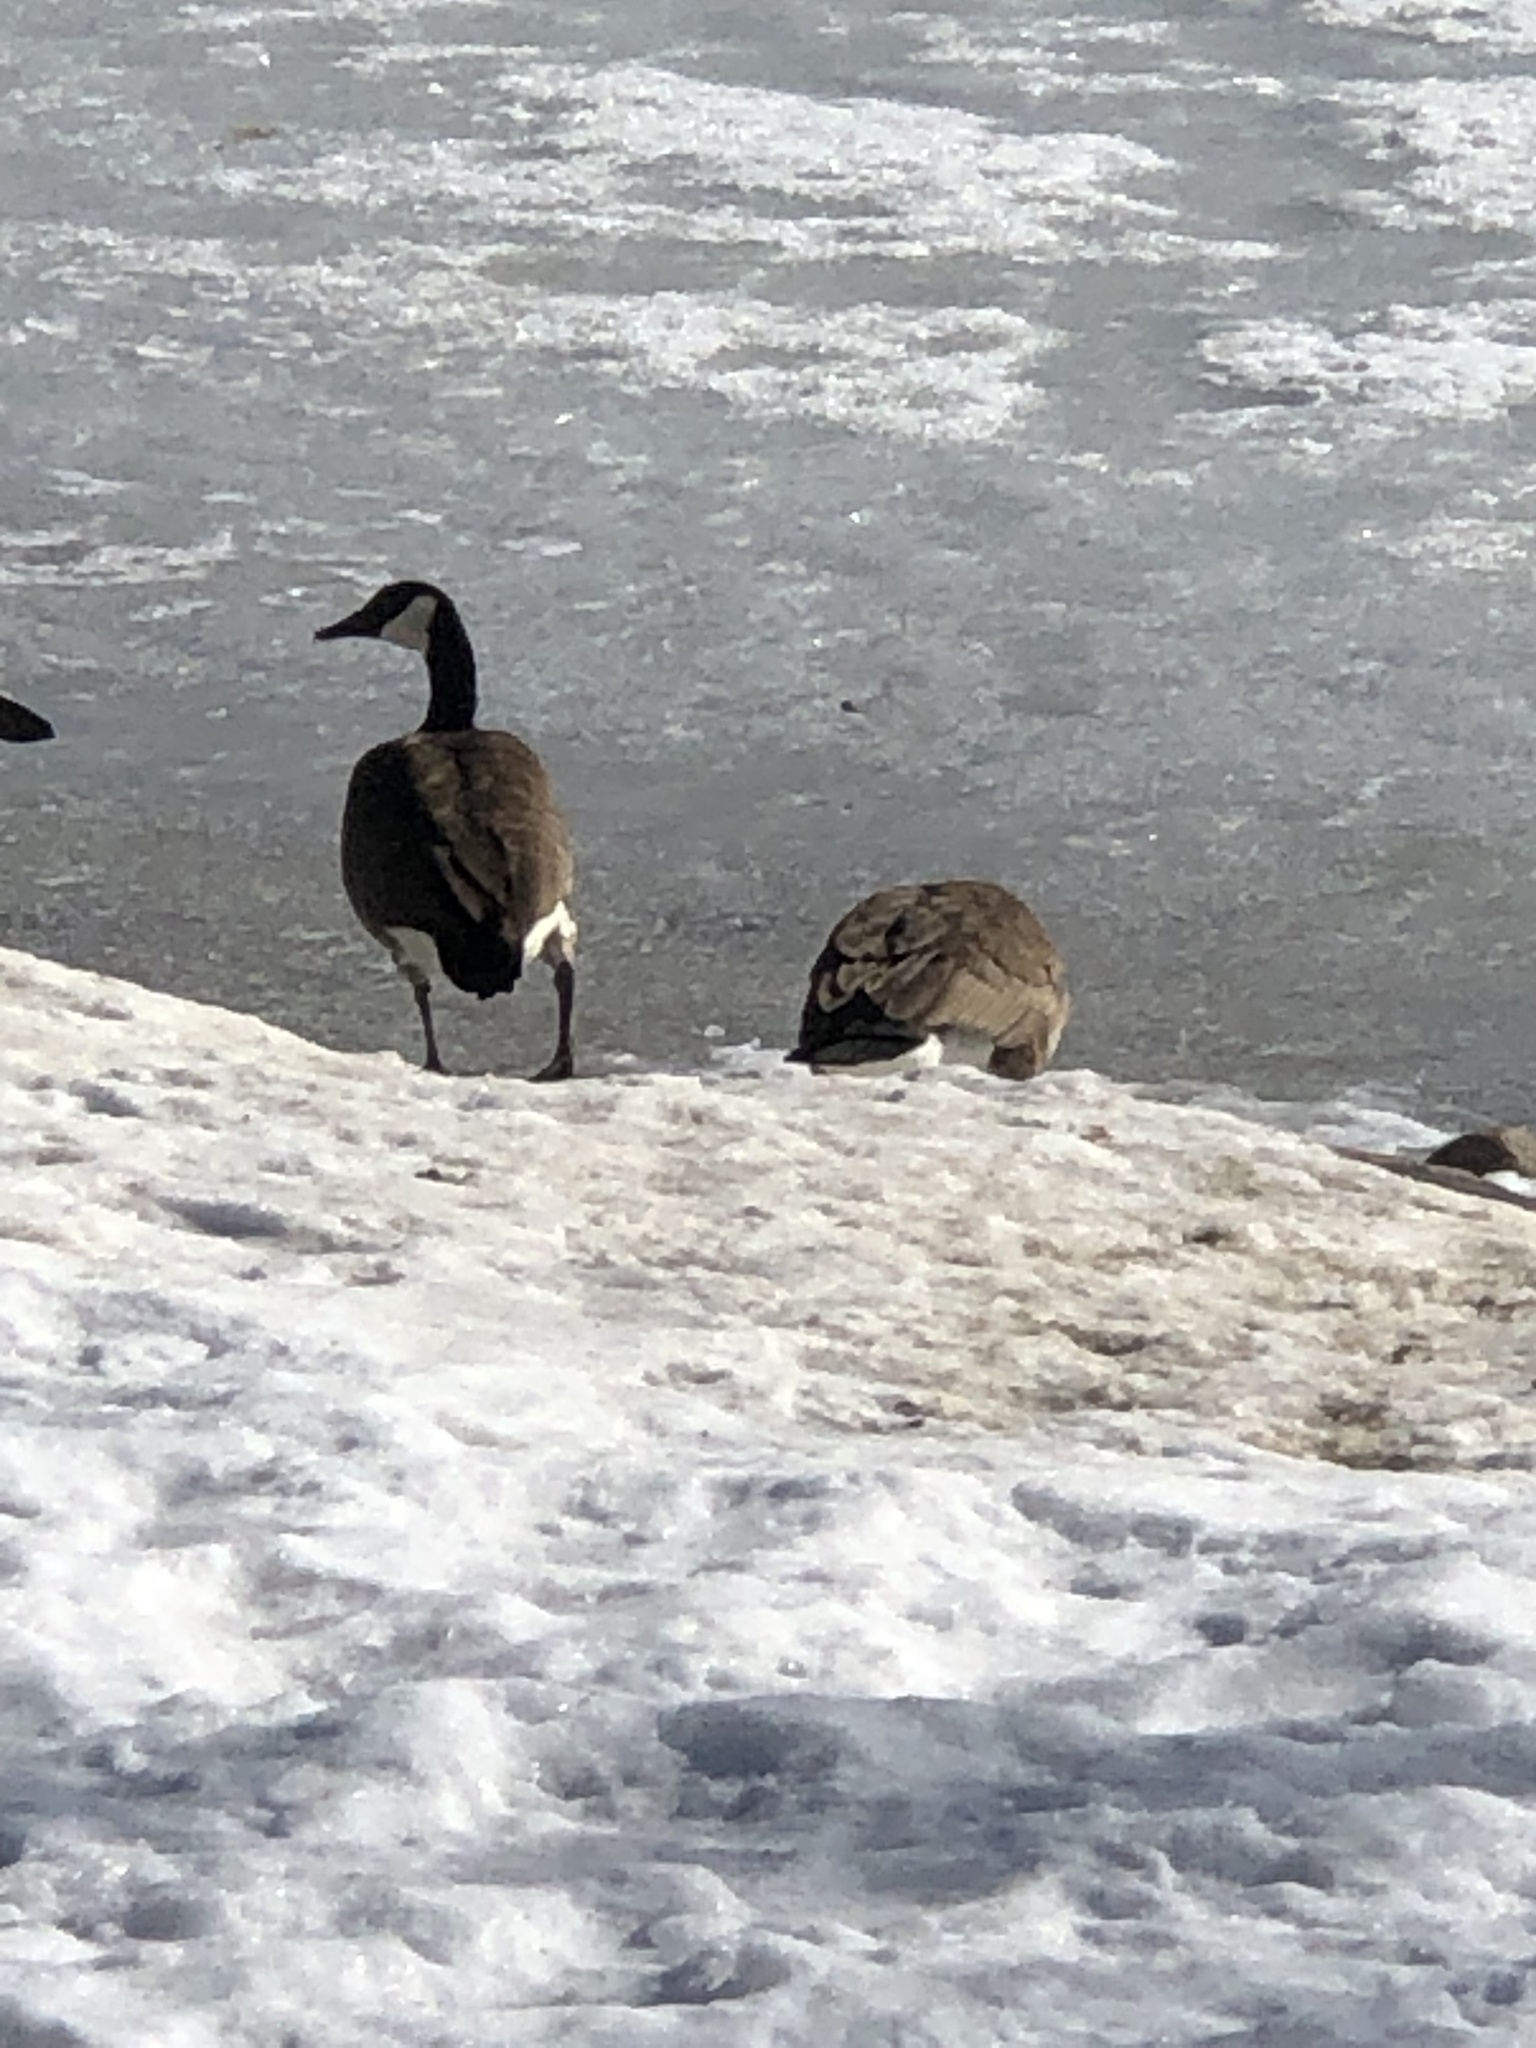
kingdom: Animalia
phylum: Chordata
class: Aves
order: Anseriformes
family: Anatidae
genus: Branta
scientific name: Branta canadensis
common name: Canada goose
